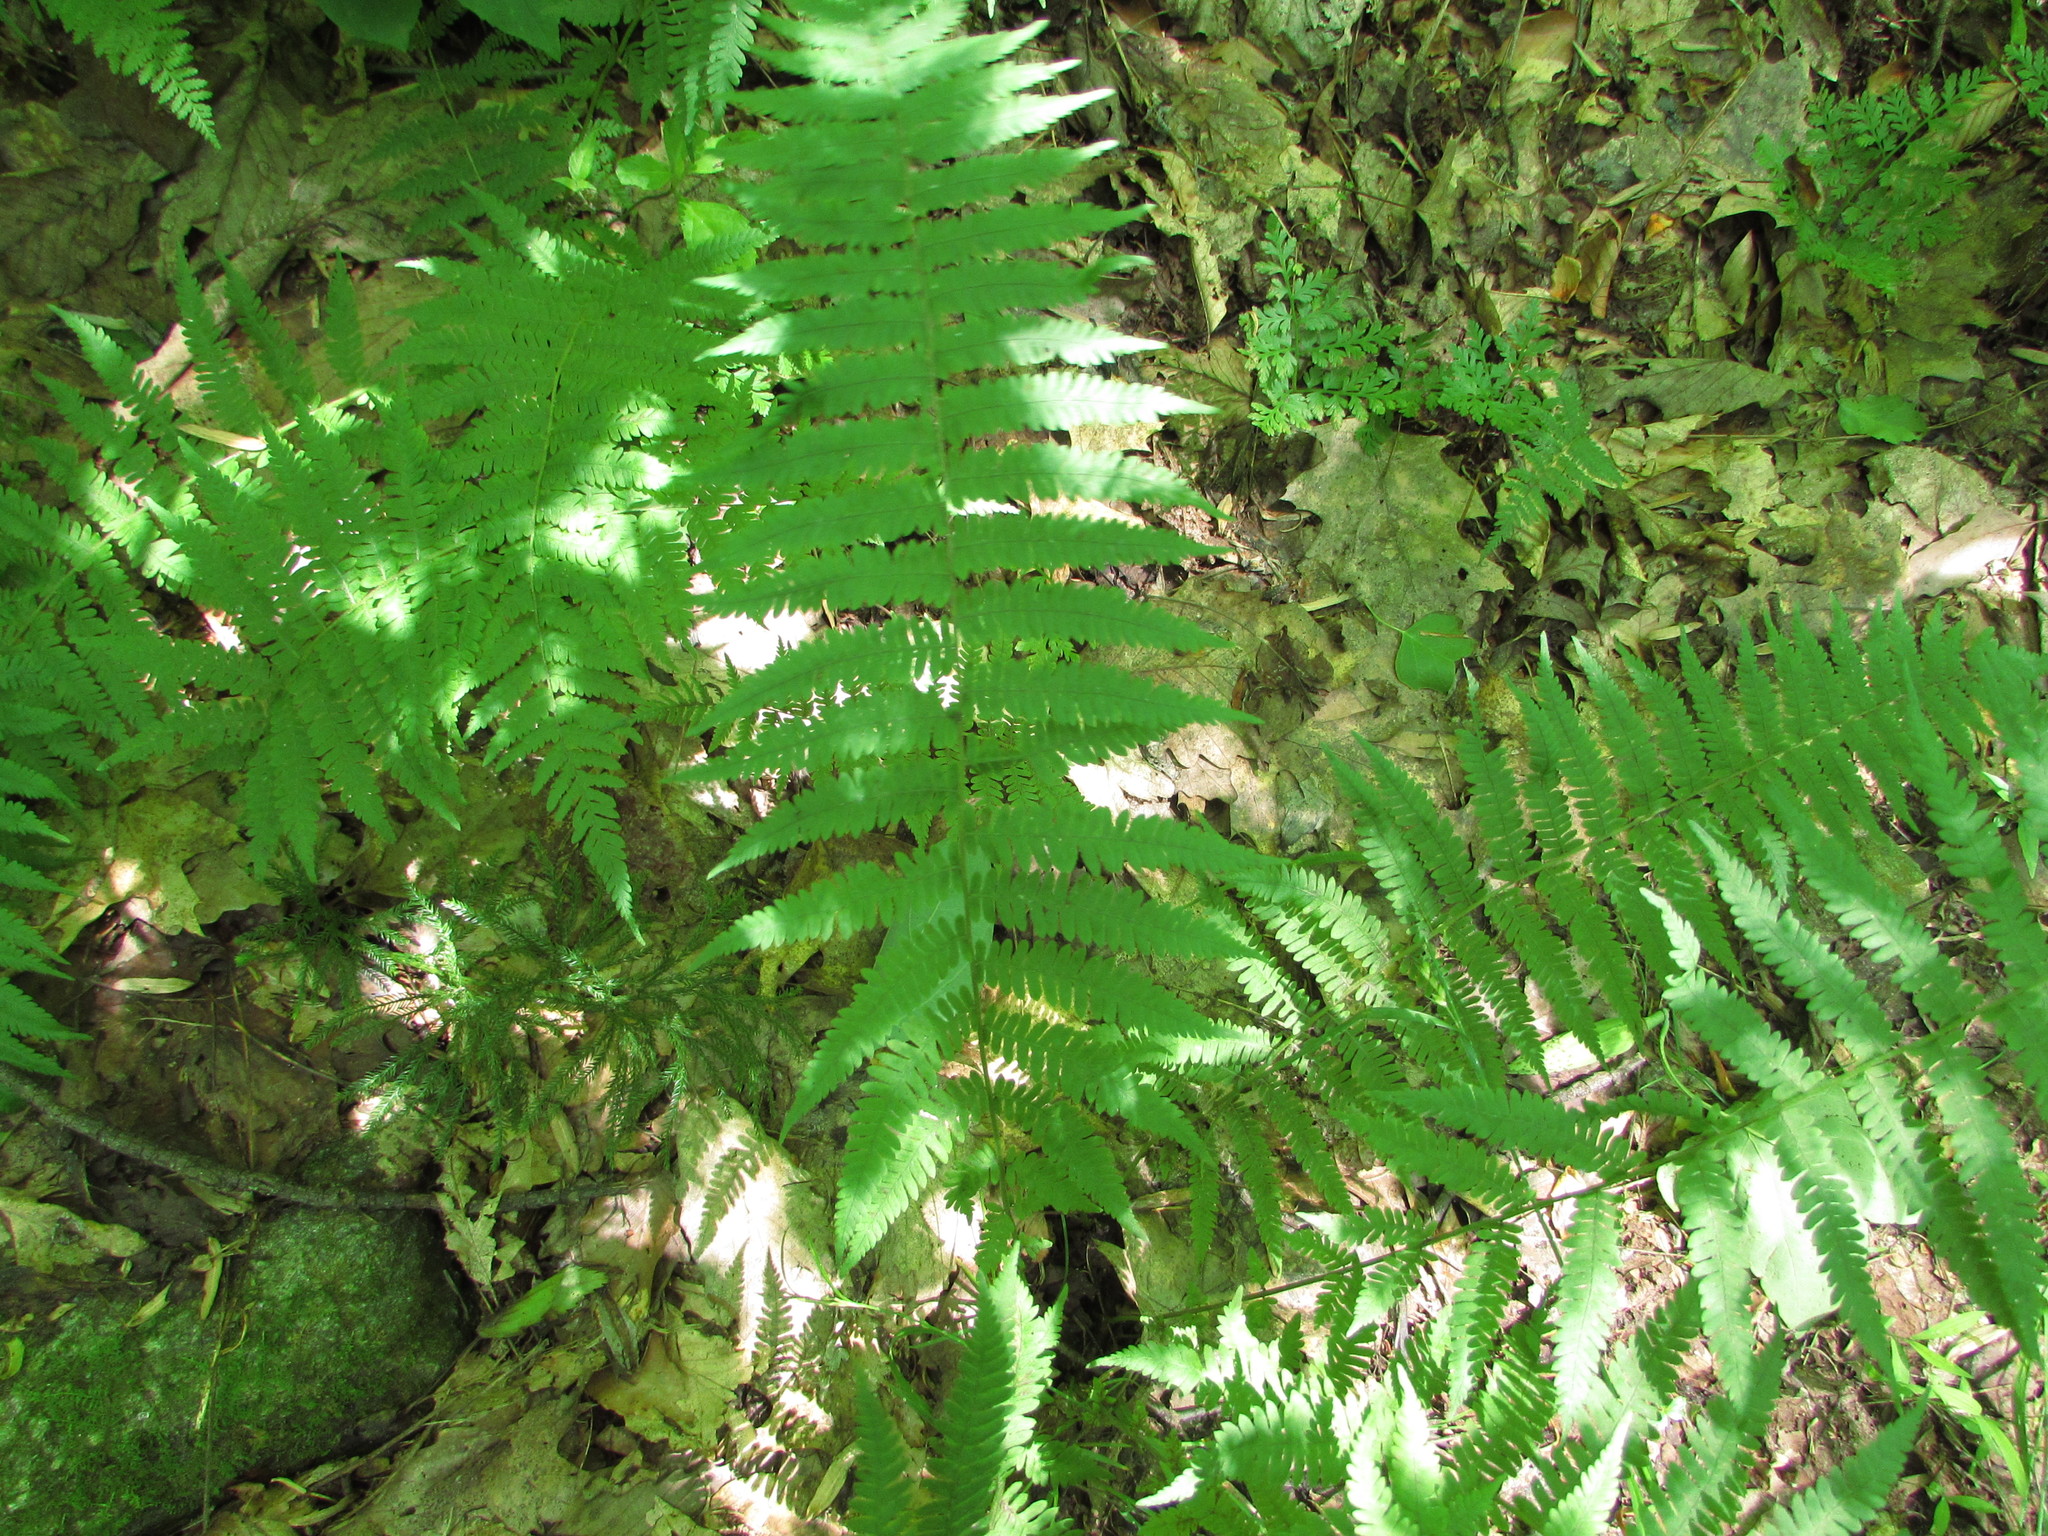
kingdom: Plantae
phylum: Tracheophyta
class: Polypodiopsida
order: Polypodiales
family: Thelypteridaceae
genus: Amauropelta
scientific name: Amauropelta noveboracensis
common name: New york fern
